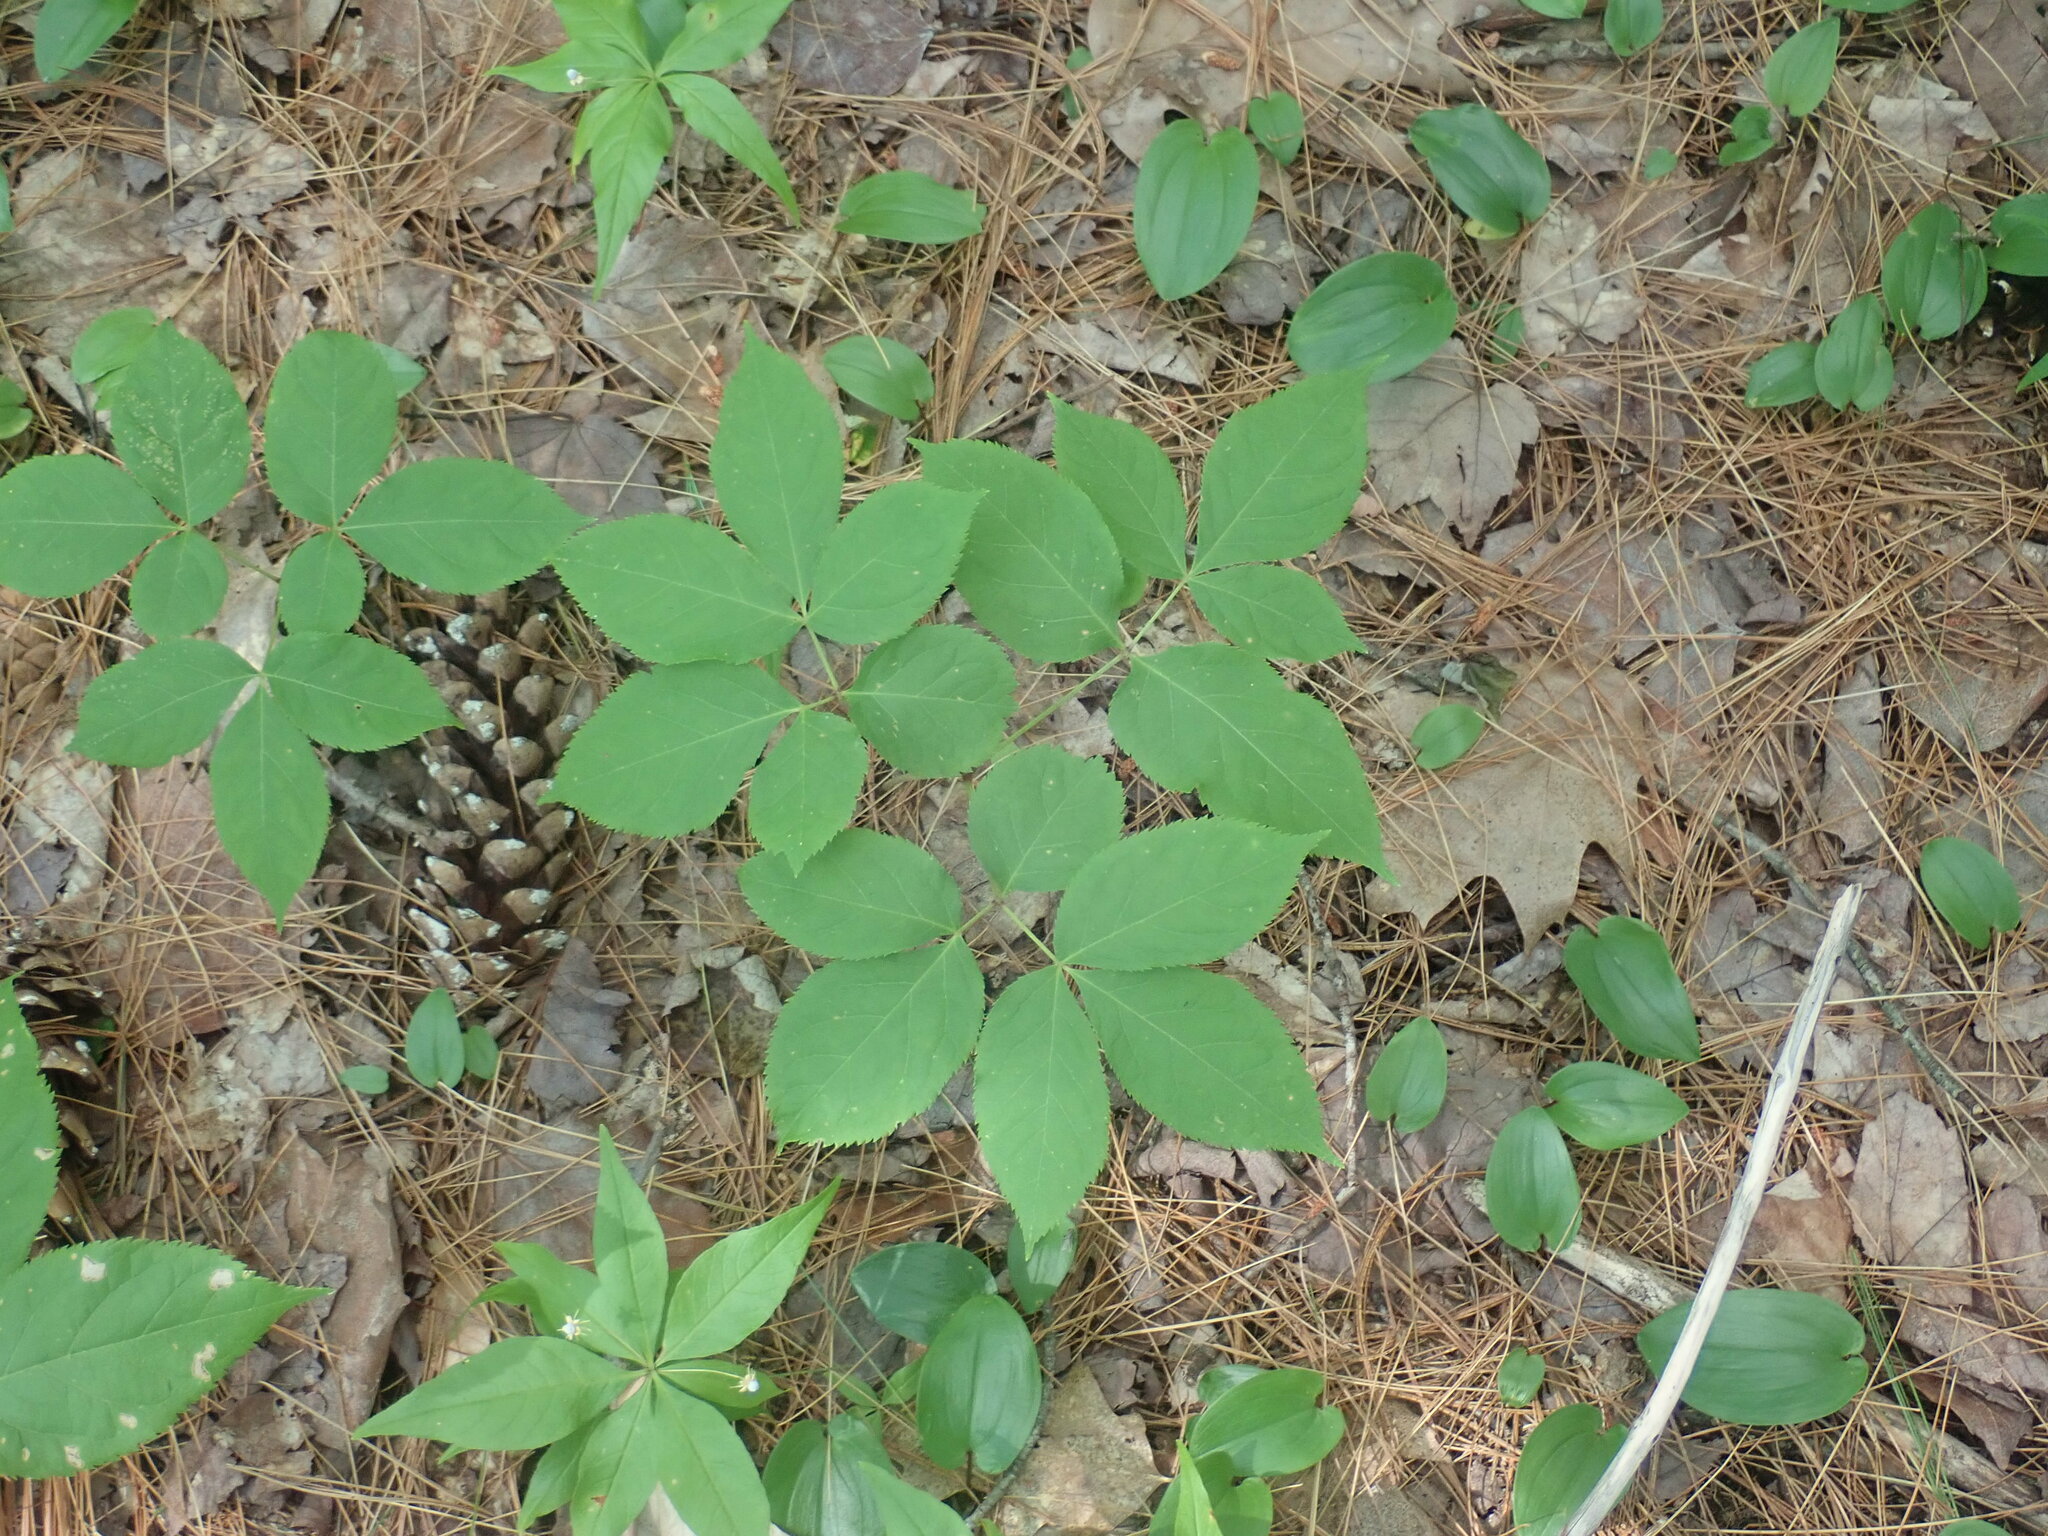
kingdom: Plantae
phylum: Tracheophyta
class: Magnoliopsida
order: Apiales
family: Araliaceae
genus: Aralia
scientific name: Aralia nudicaulis
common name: Wild sarsaparilla
